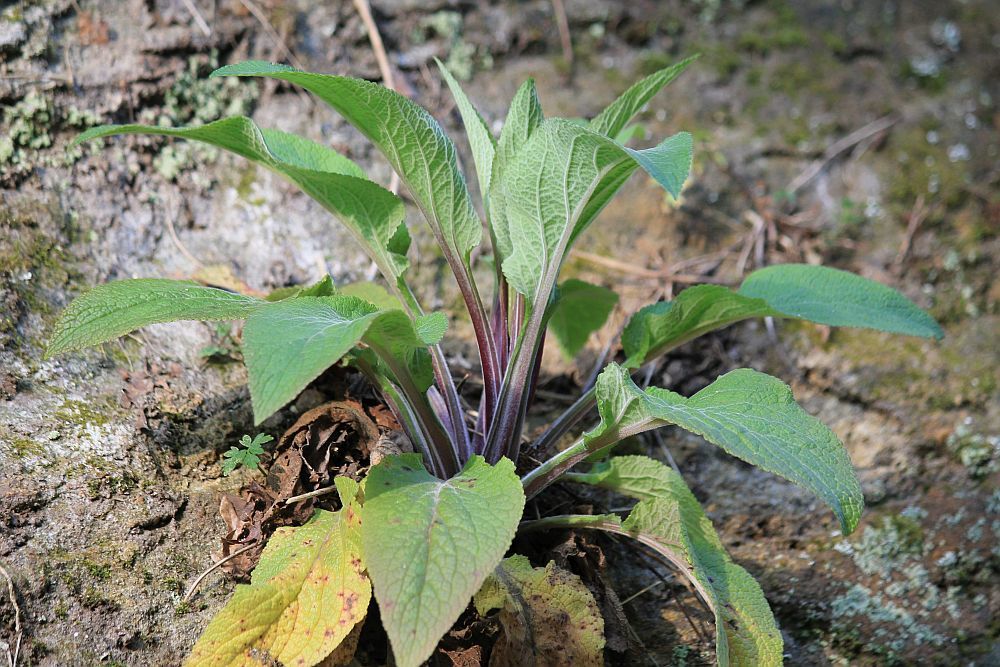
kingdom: Plantae
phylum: Tracheophyta
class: Magnoliopsida
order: Lamiales
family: Plantaginaceae
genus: Digitalis
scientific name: Digitalis purpurea
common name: Foxglove
